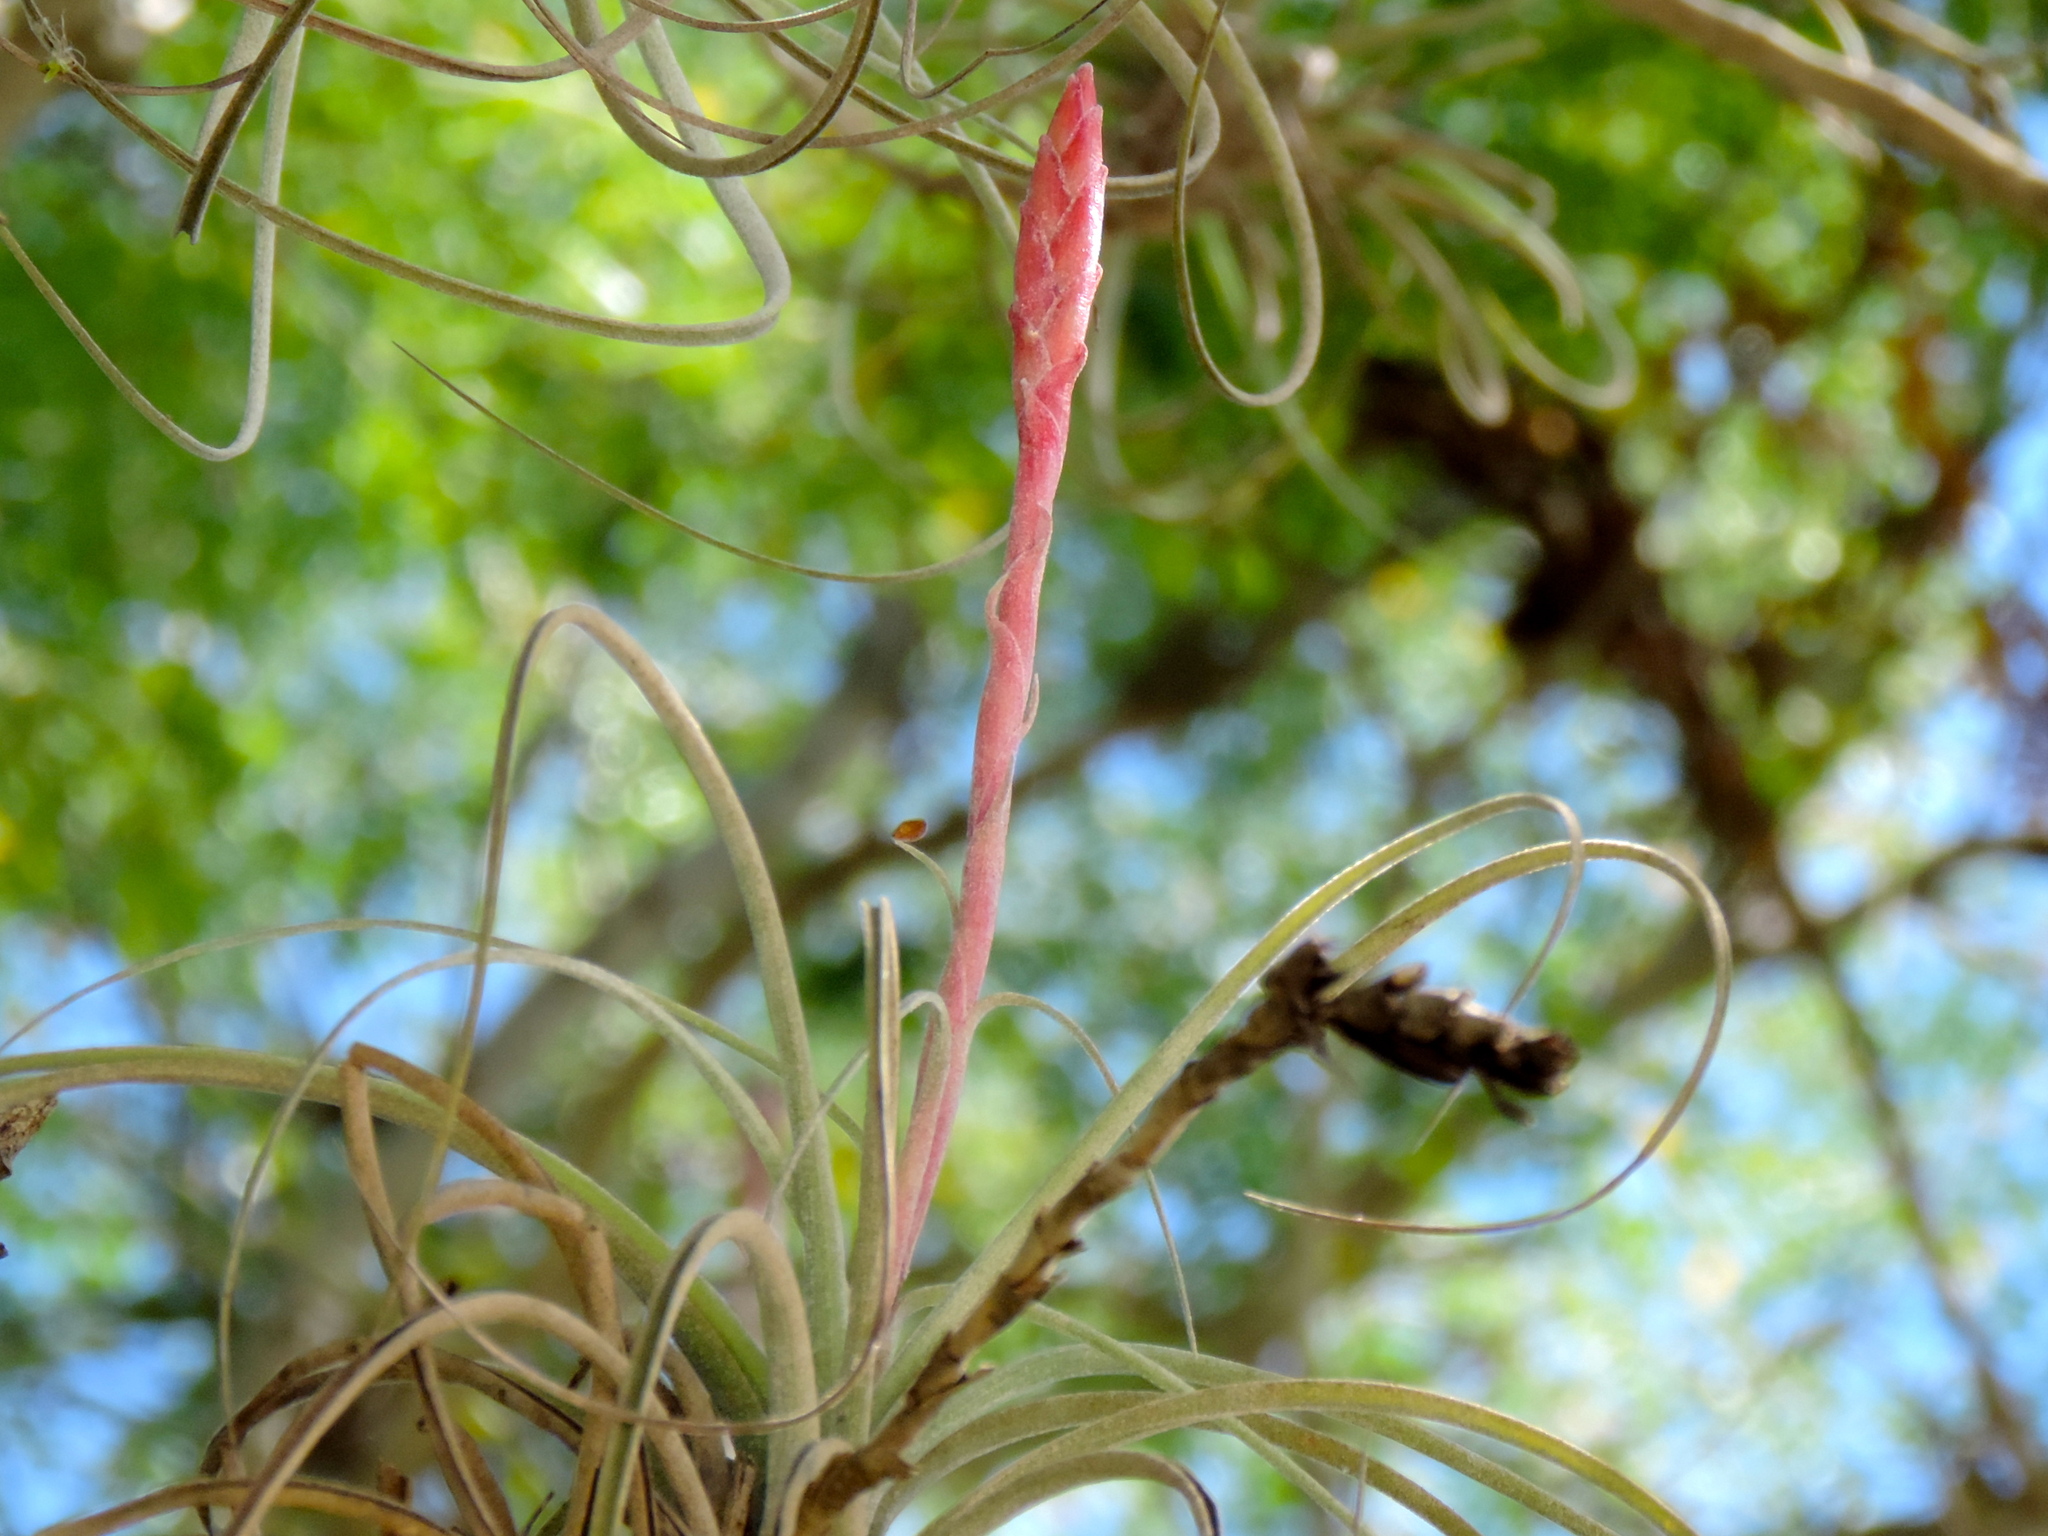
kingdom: Plantae
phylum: Tracheophyta
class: Liliopsida
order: Poales
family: Bromeliaceae
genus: Tillandsia
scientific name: Tillandsia exserta
